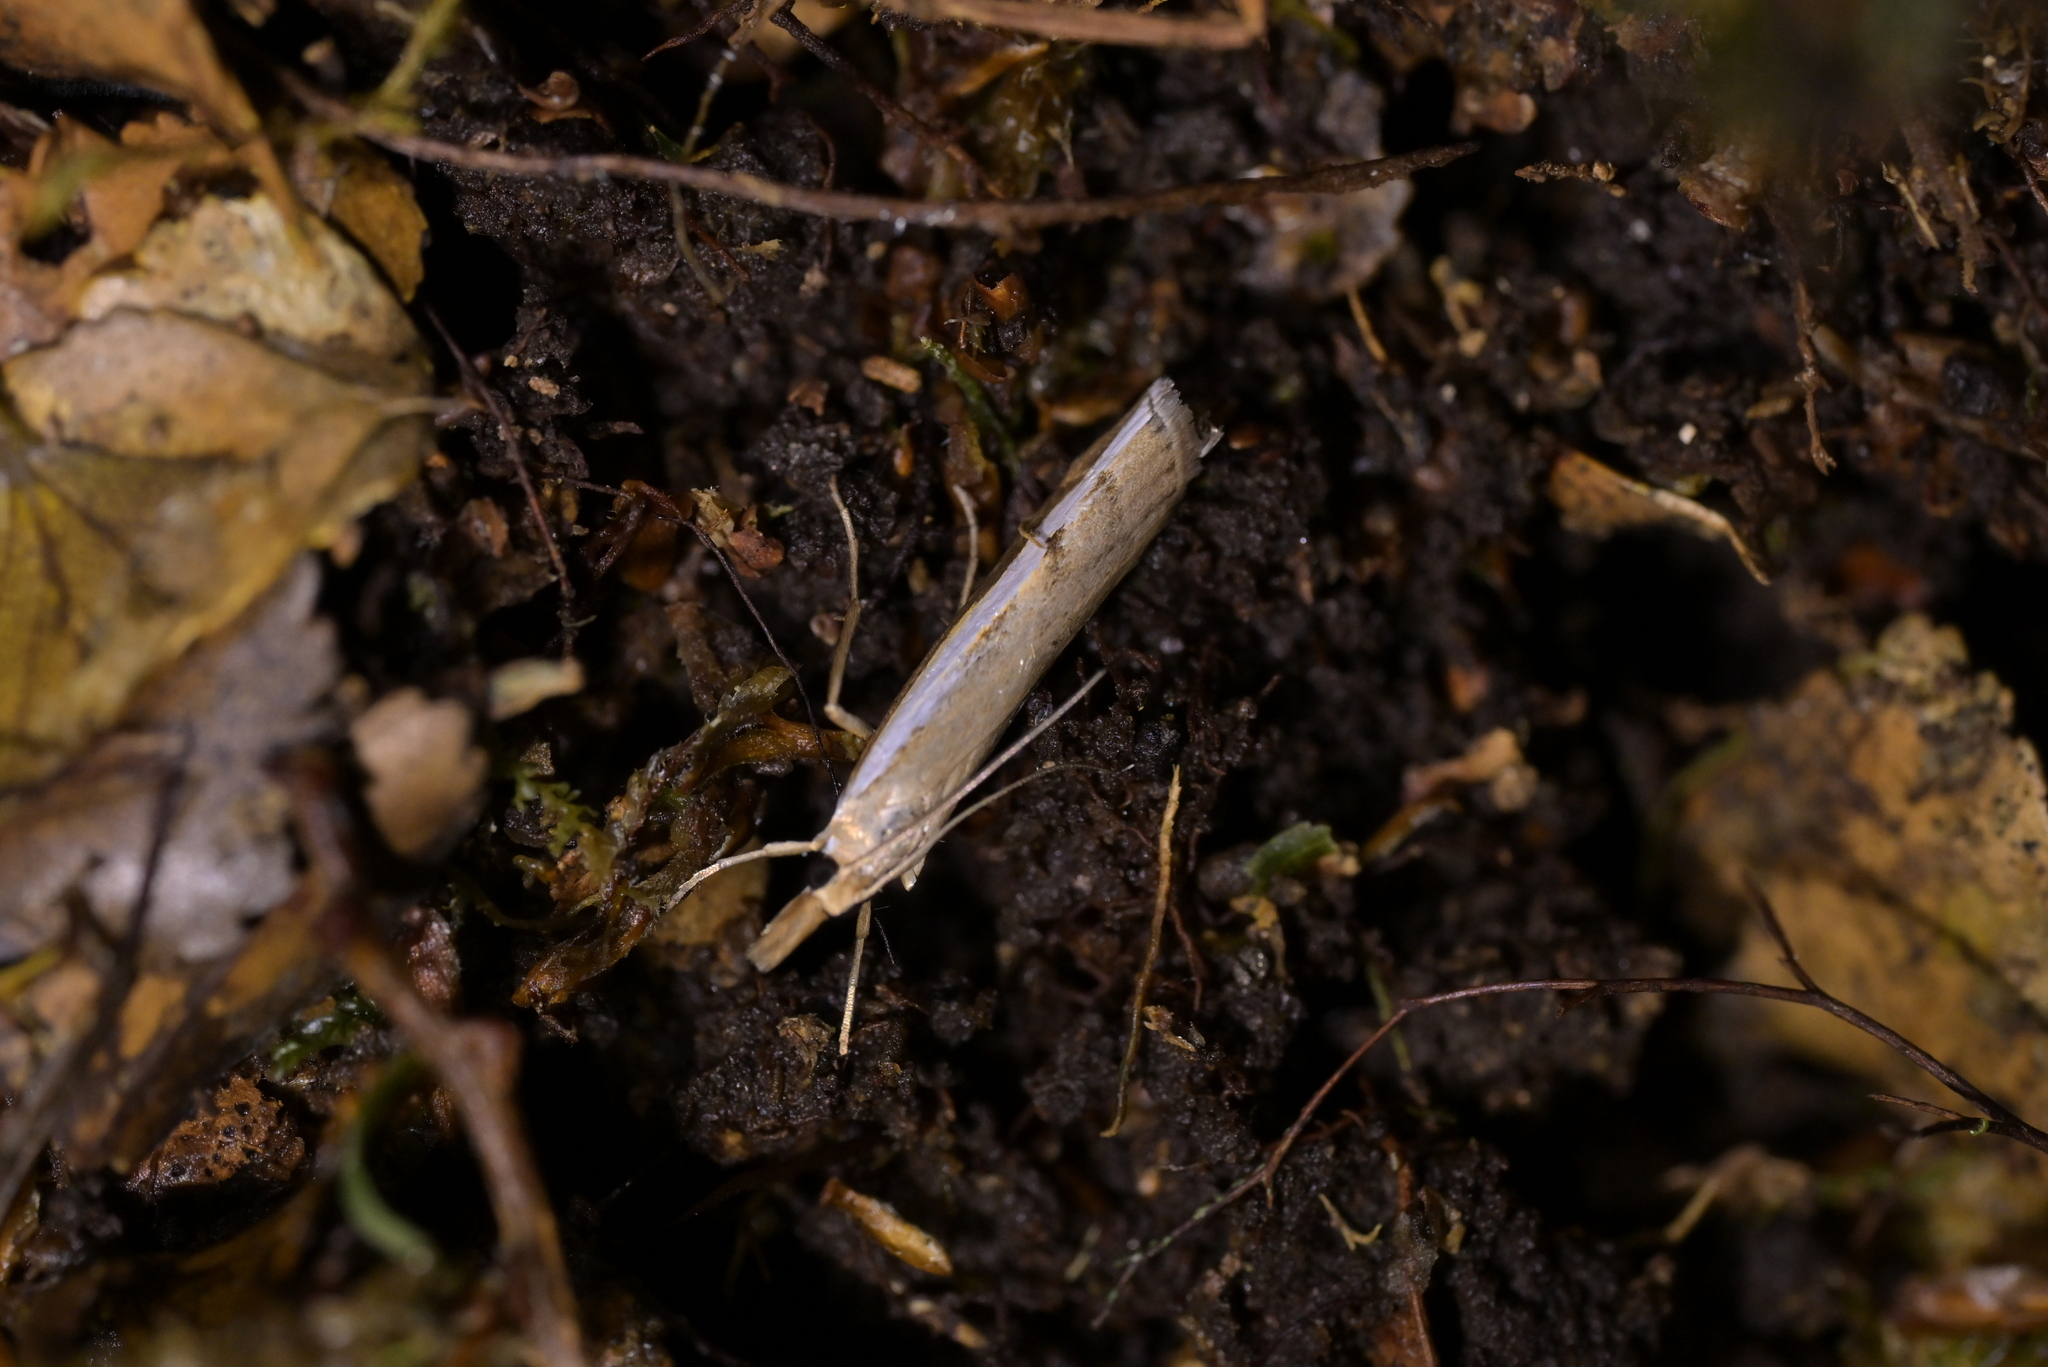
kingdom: Animalia
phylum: Arthropoda
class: Insecta
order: Lepidoptera
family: Crambidae
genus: Orocrambus
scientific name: Orocrambus flexuosellus
